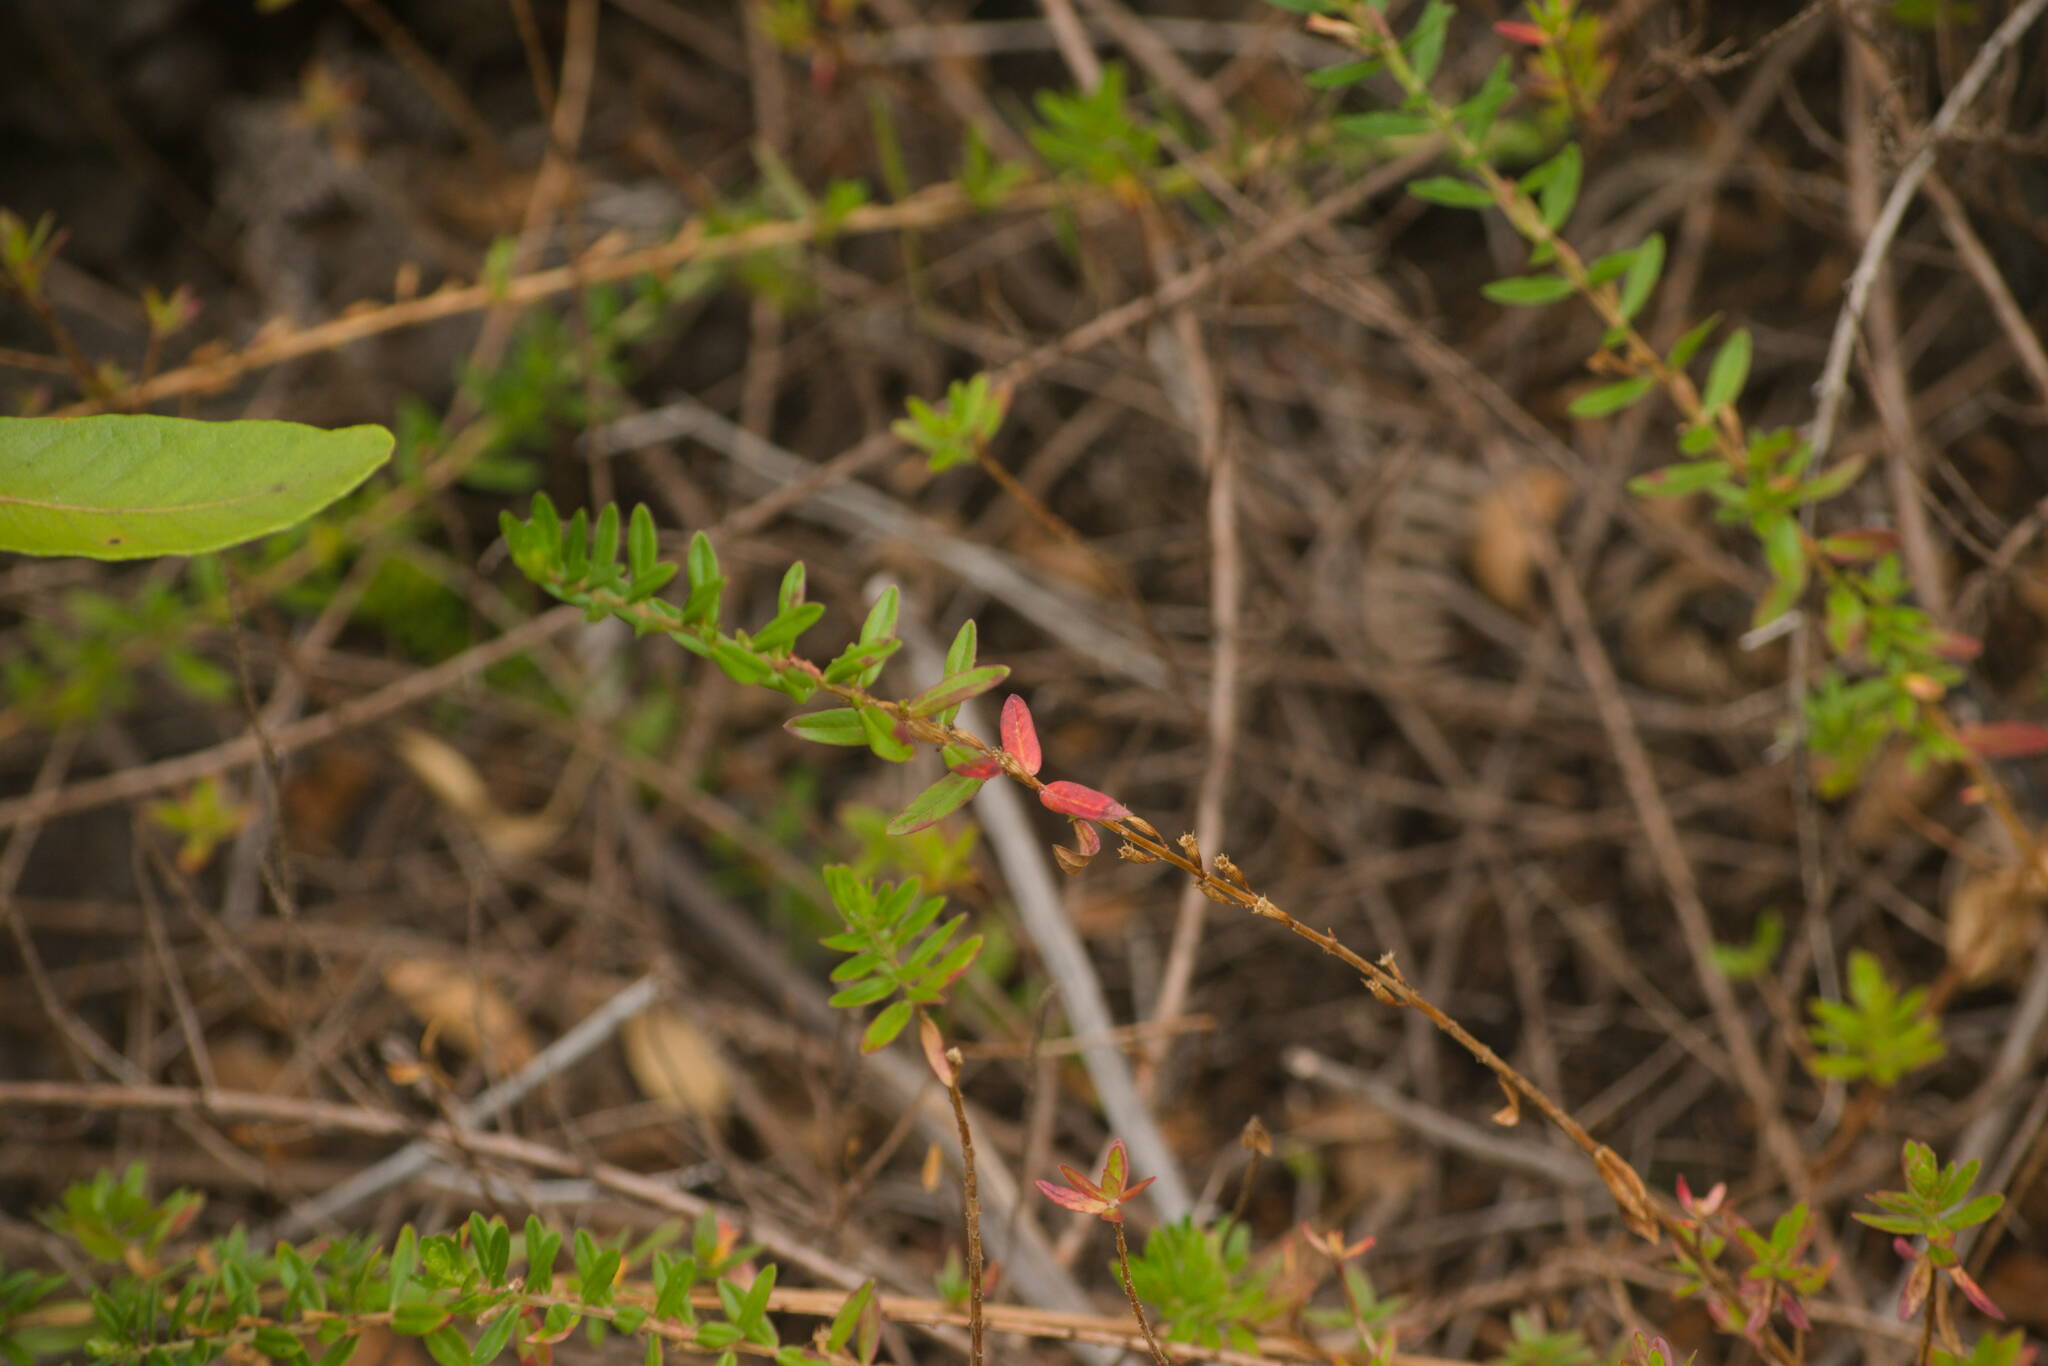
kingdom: Plantae
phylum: Tracheophyta
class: Magnoliopsida
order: Myrtales
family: Lythraceae
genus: Lythrum
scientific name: Lythrum maritimum
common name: Pukamole
